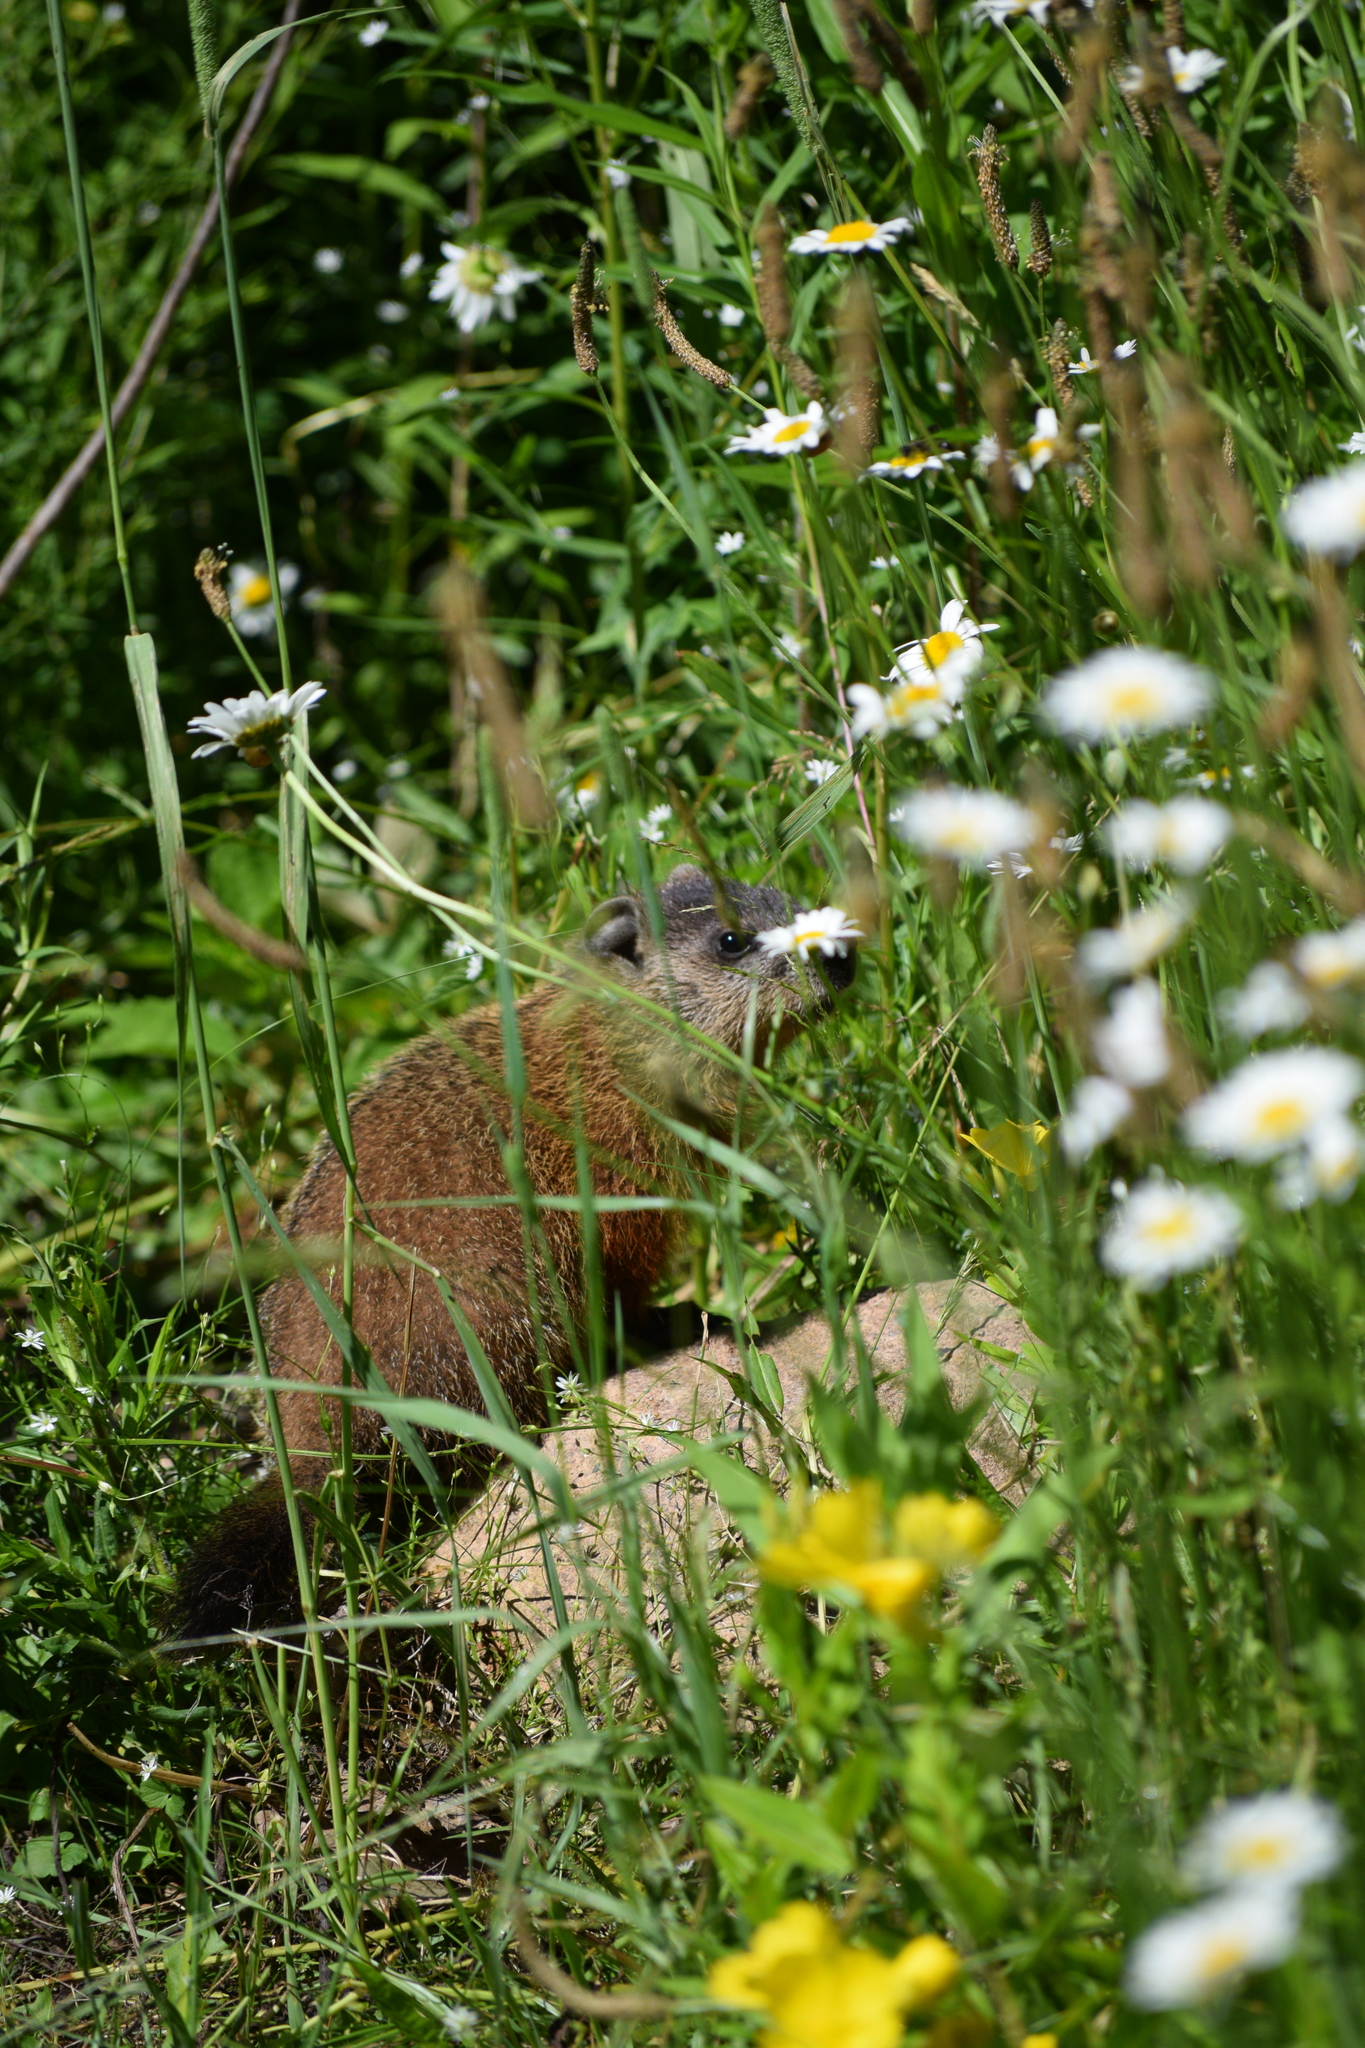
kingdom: Animalia
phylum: Chordata
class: Mammalia
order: Rodentia
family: Sciuridae
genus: Marmota
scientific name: Marmota monax
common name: Groundhog
